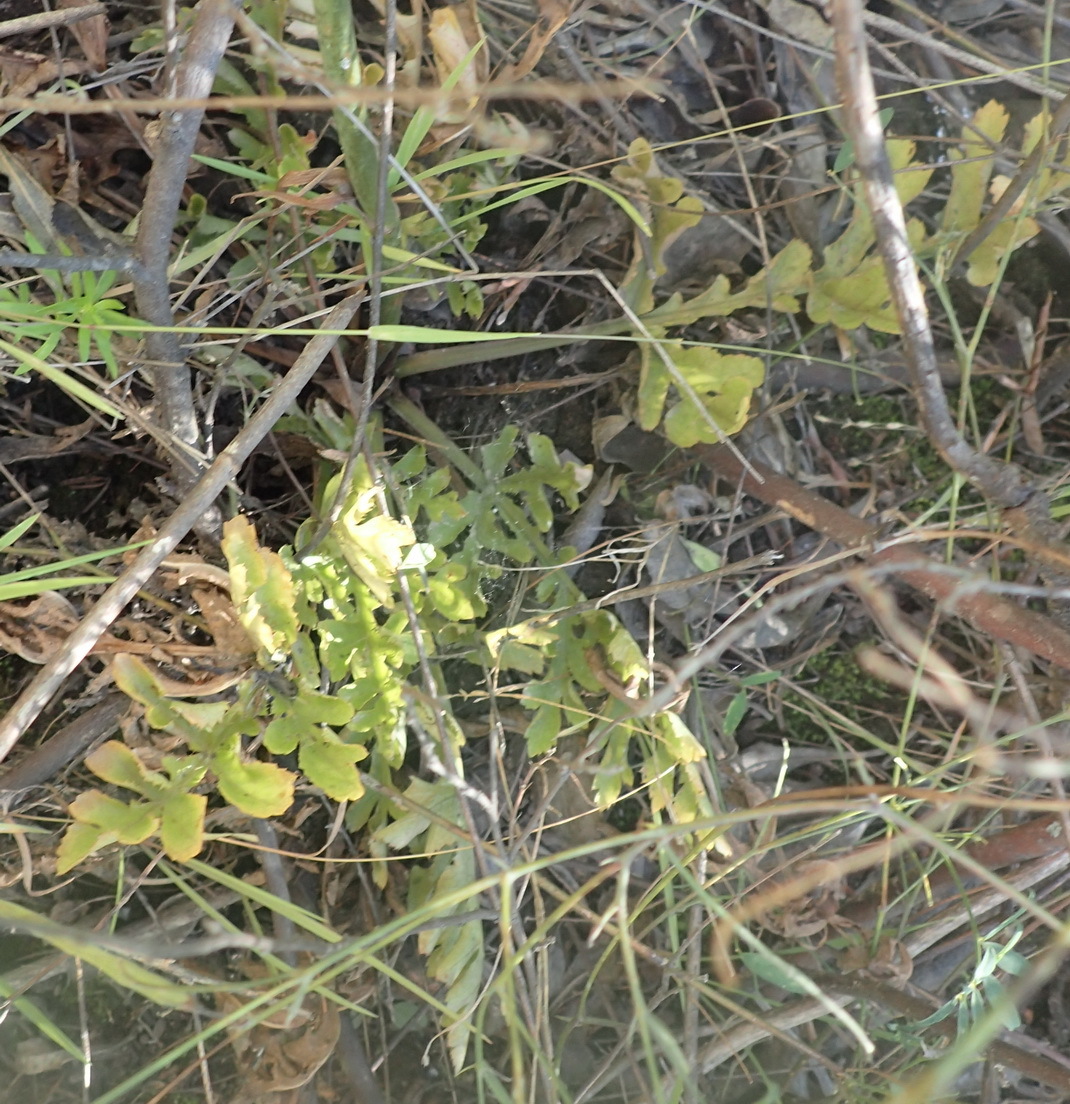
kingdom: Plantae
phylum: Tracheophyta
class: Magnoliopsida
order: Apiales
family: Apiaceae
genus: Lichtensteinia
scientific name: Lichtensteinia interrupta
